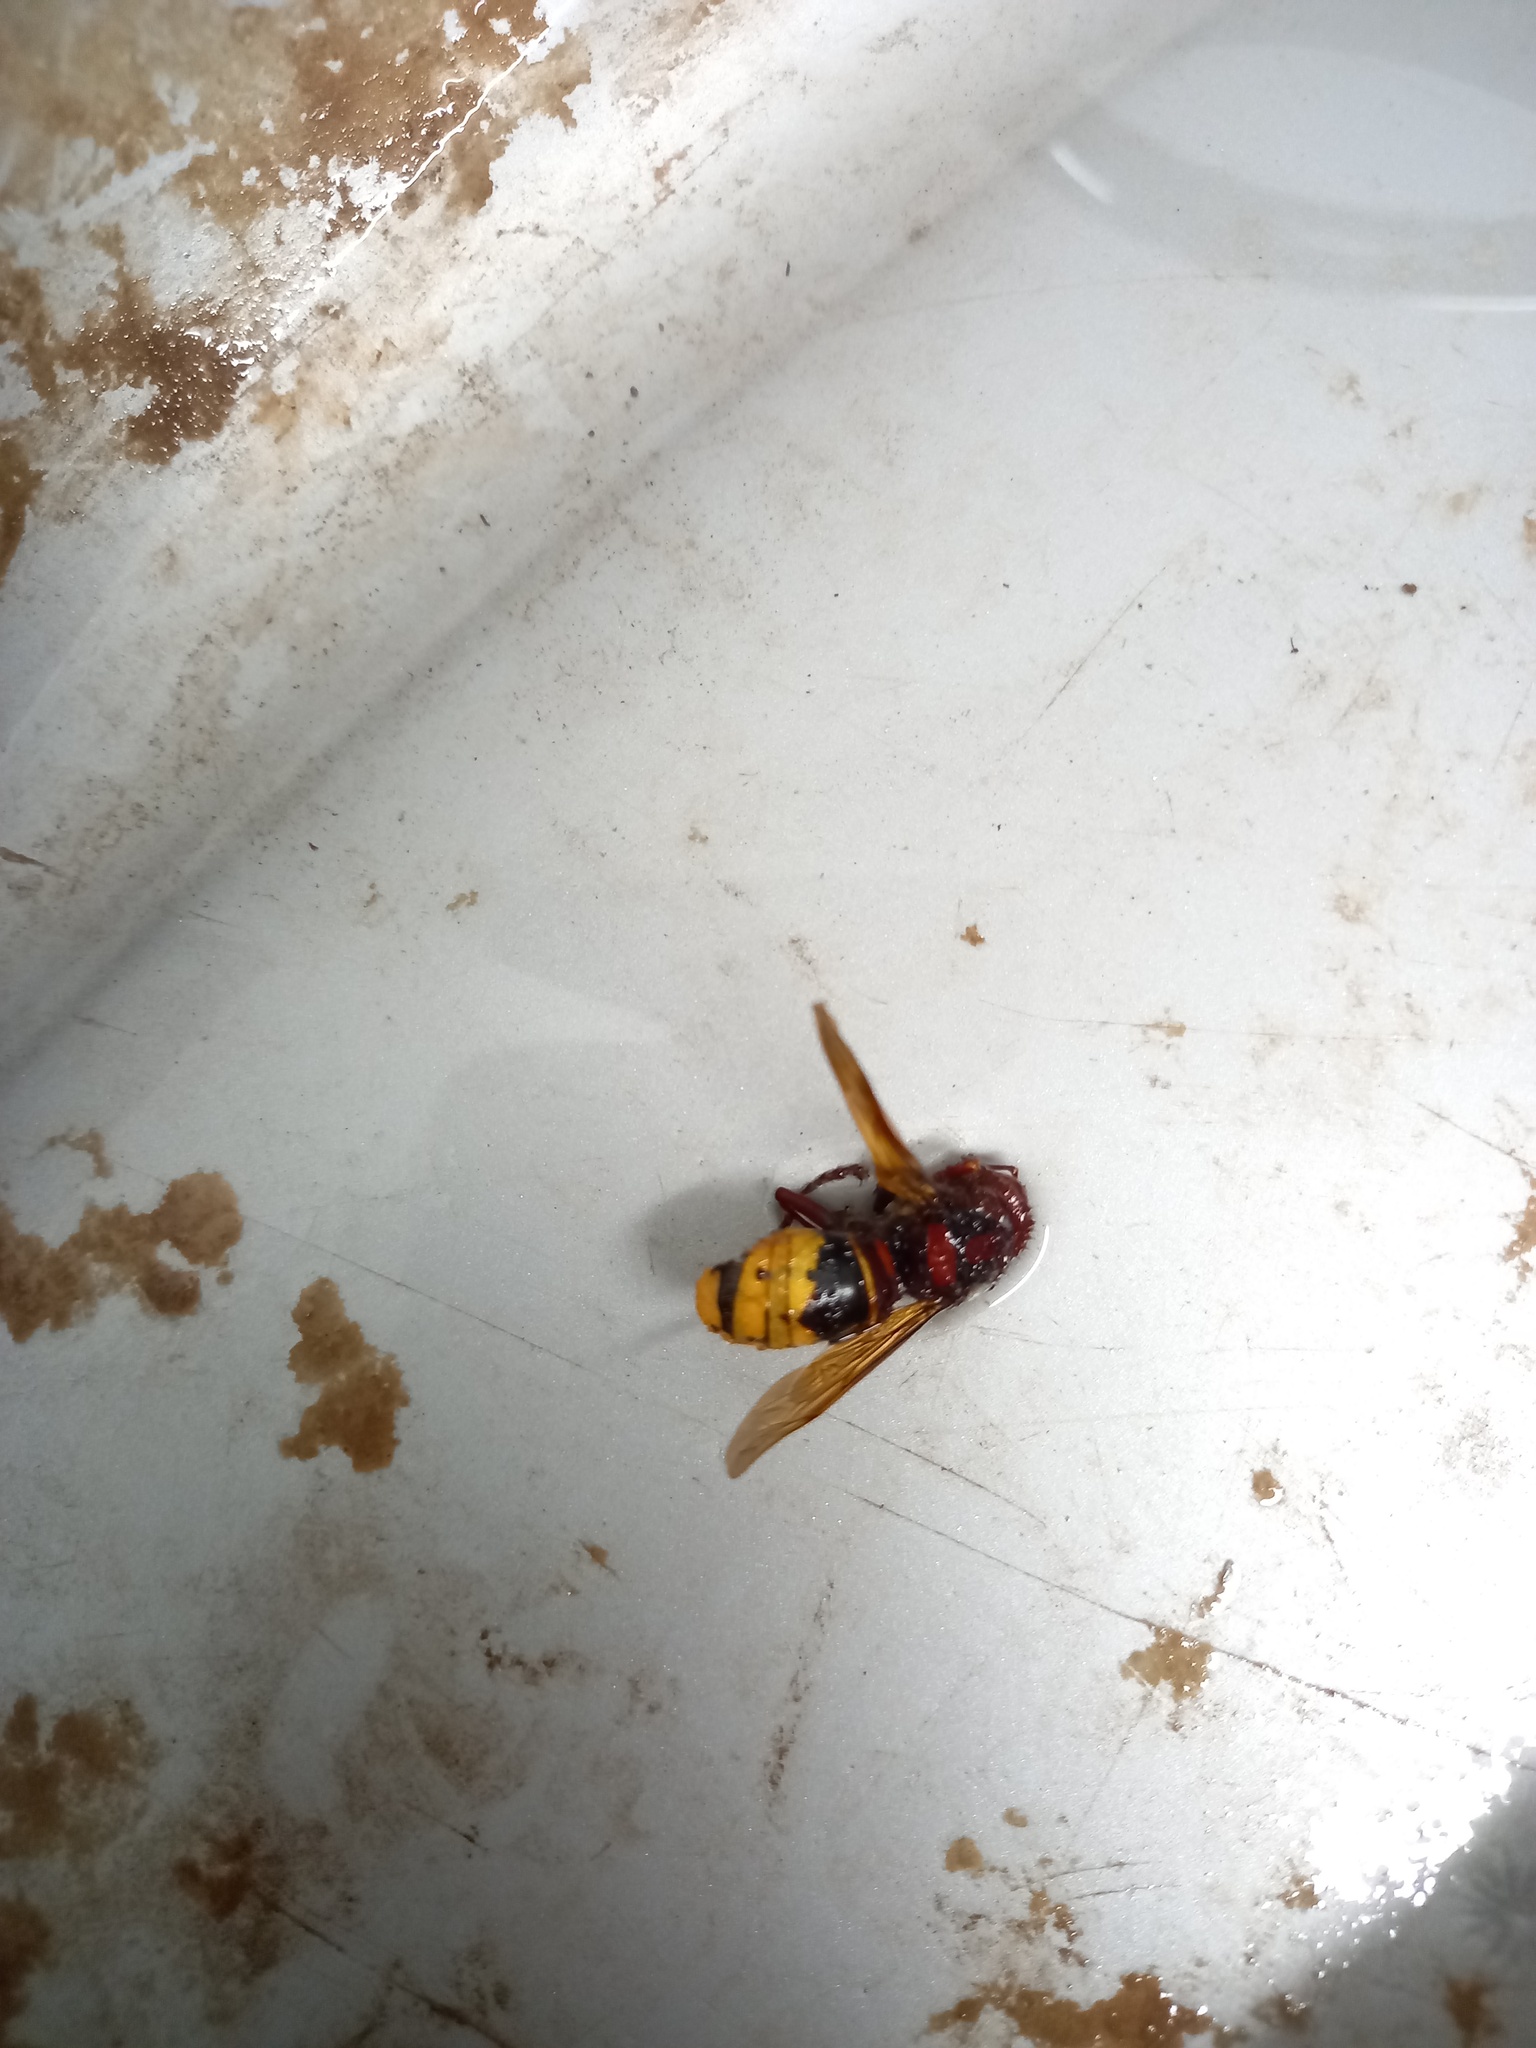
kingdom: Animalia
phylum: Arthropoda
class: Insecta
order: Hymenoptera
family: Vespidae
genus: Vespa
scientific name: Vespa crabro
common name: Hornet
